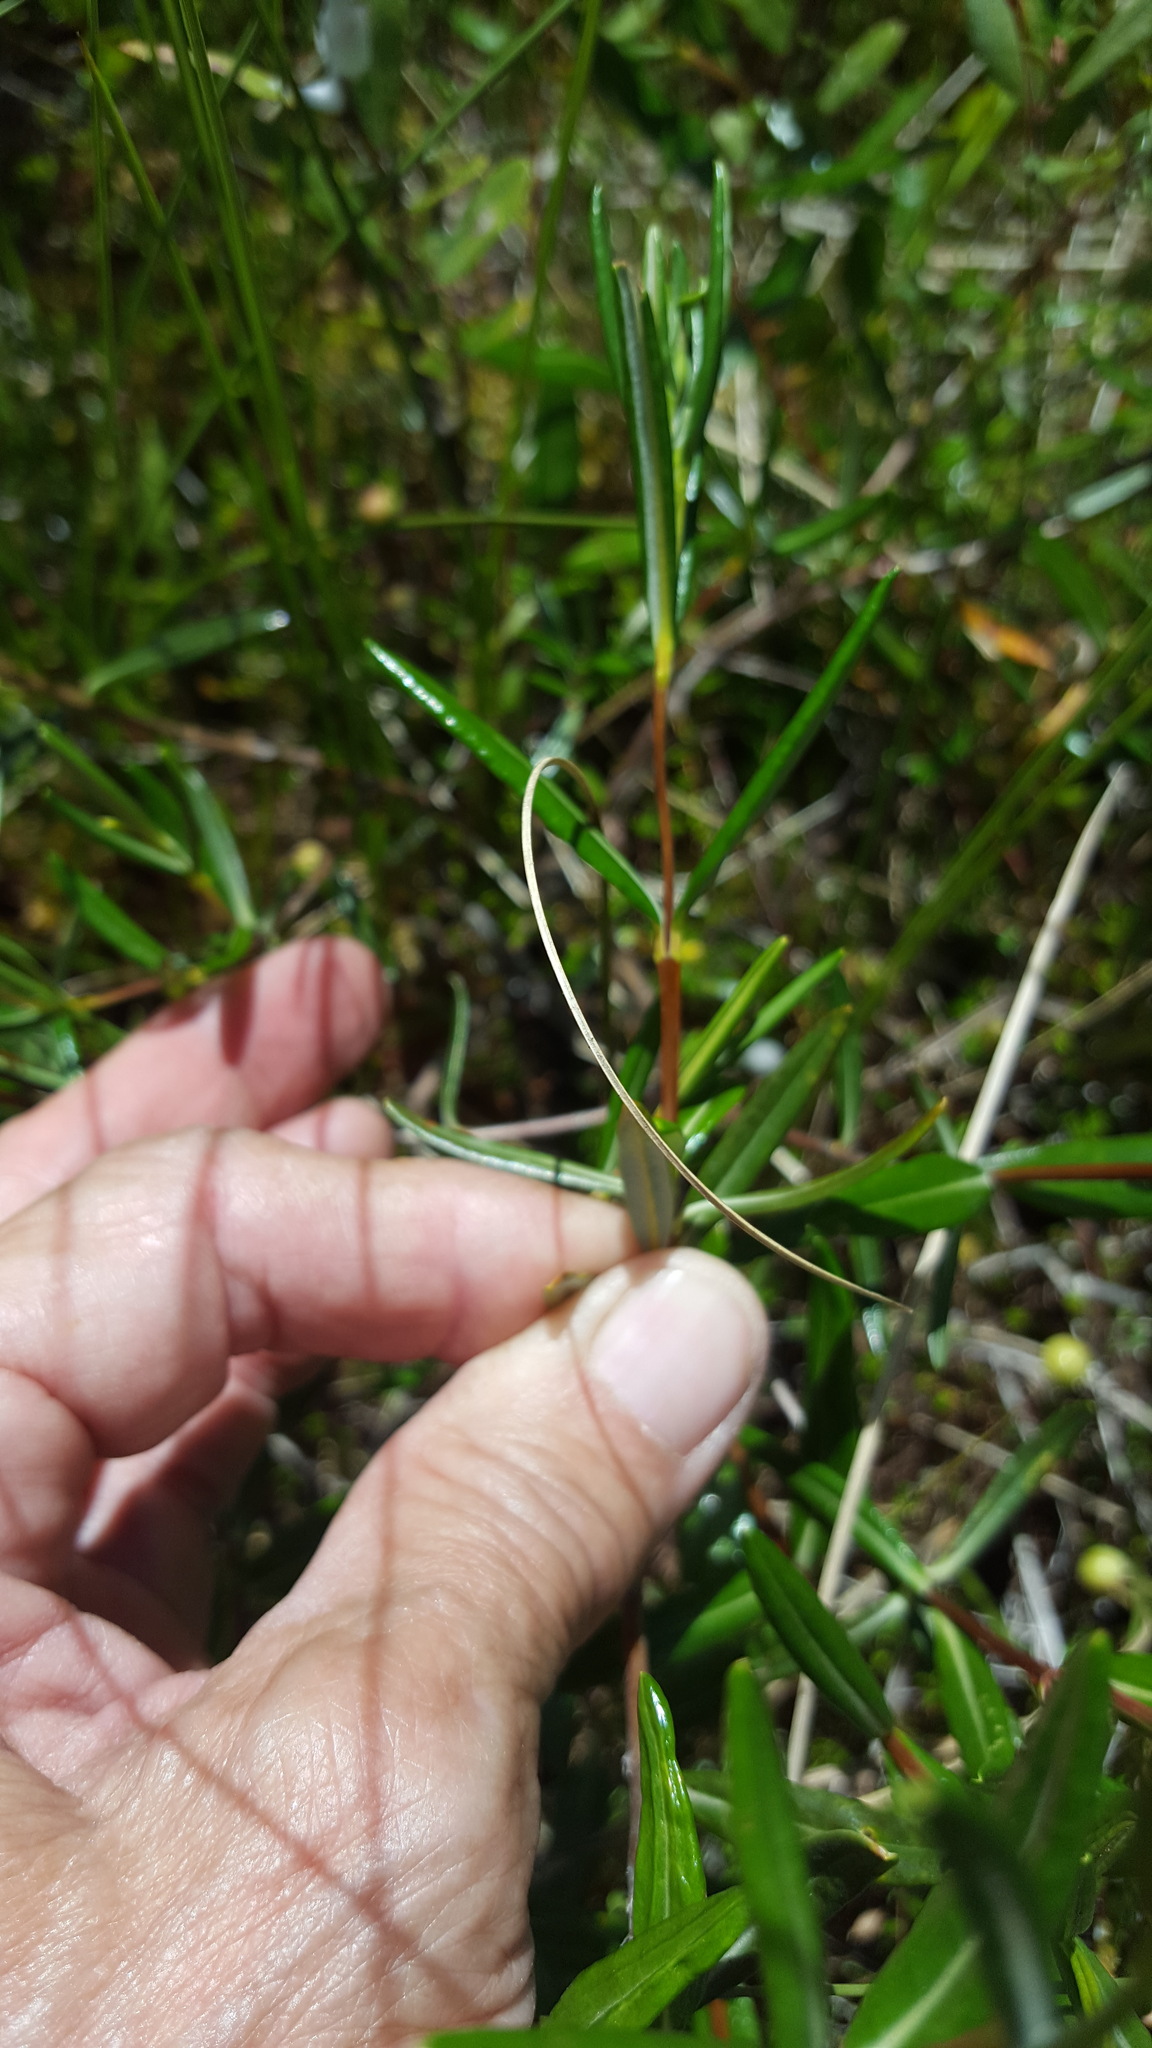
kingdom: Plantae
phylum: Tracheophyta
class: Magnoliopsida
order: Ericales
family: Ericaceae
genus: Kalmia
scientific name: Kalmia polifolia
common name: Bog-laurel
